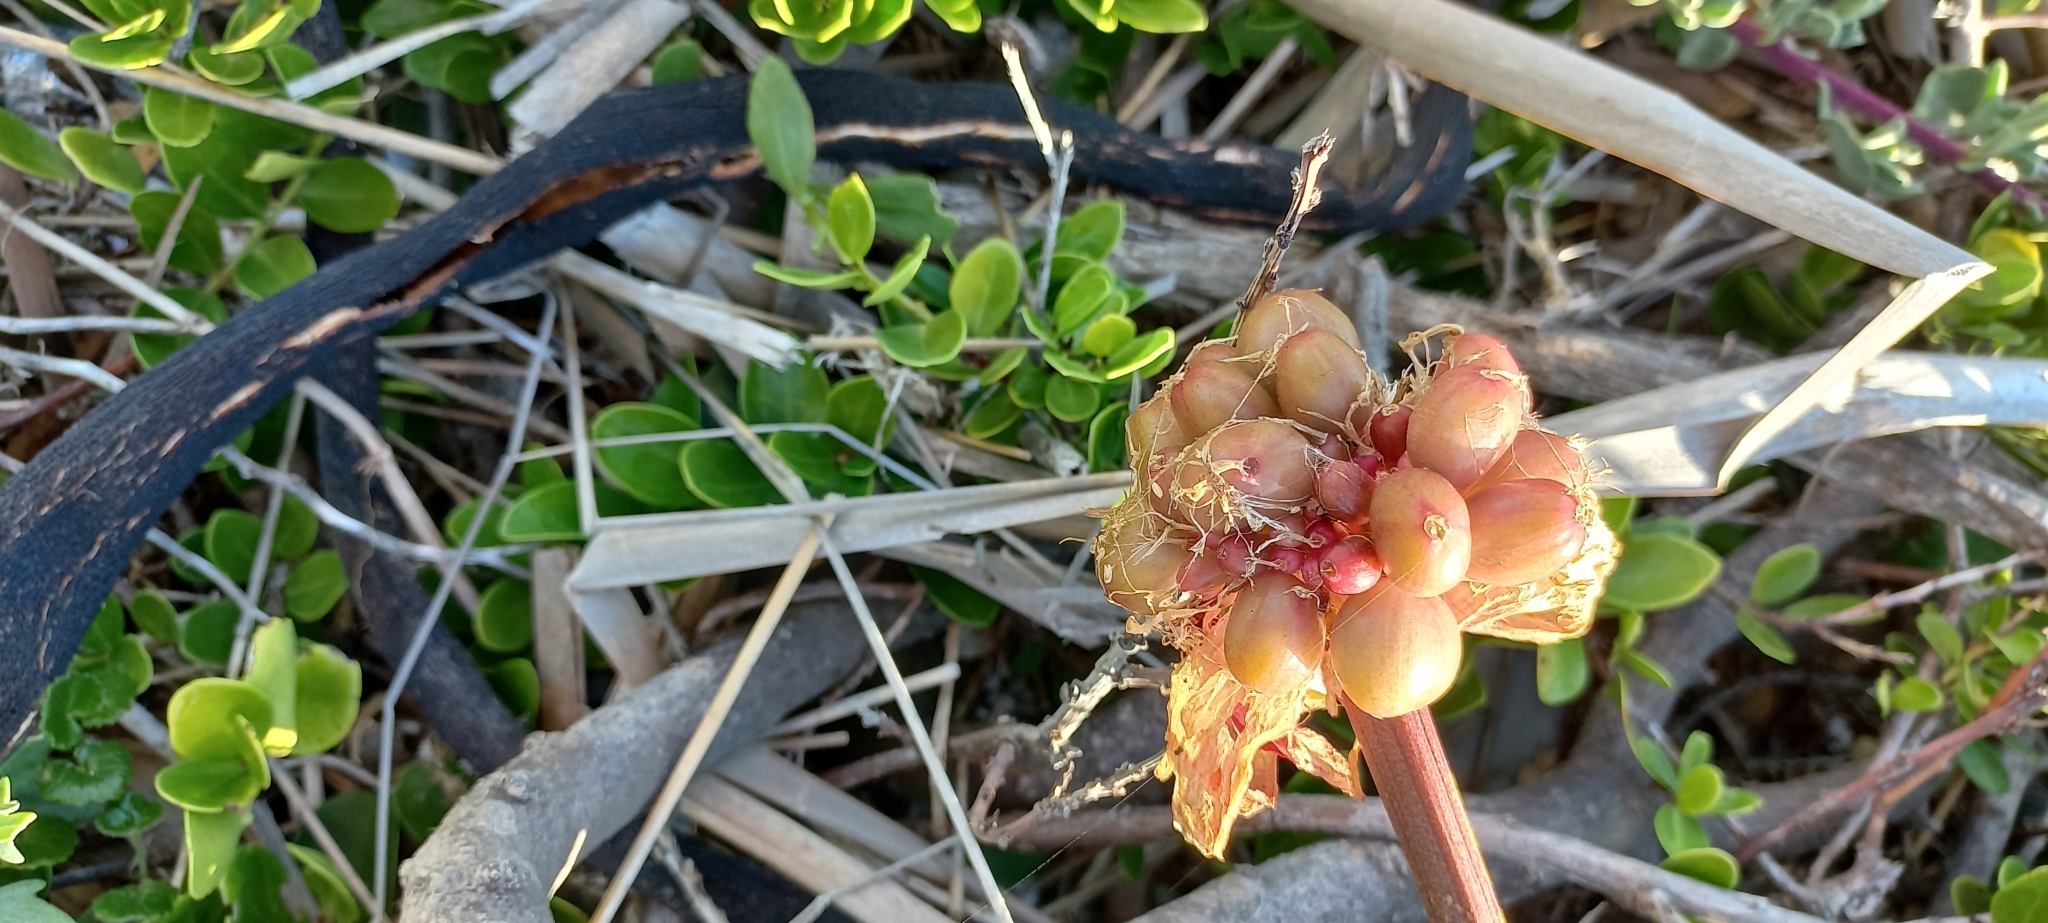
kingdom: Plantae
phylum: Tracheophyta
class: Liliopsida
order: Asparagales
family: Amaryllidaceae
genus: Haemanthus
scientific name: Haemanthus coccineus
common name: Cape-tulip
